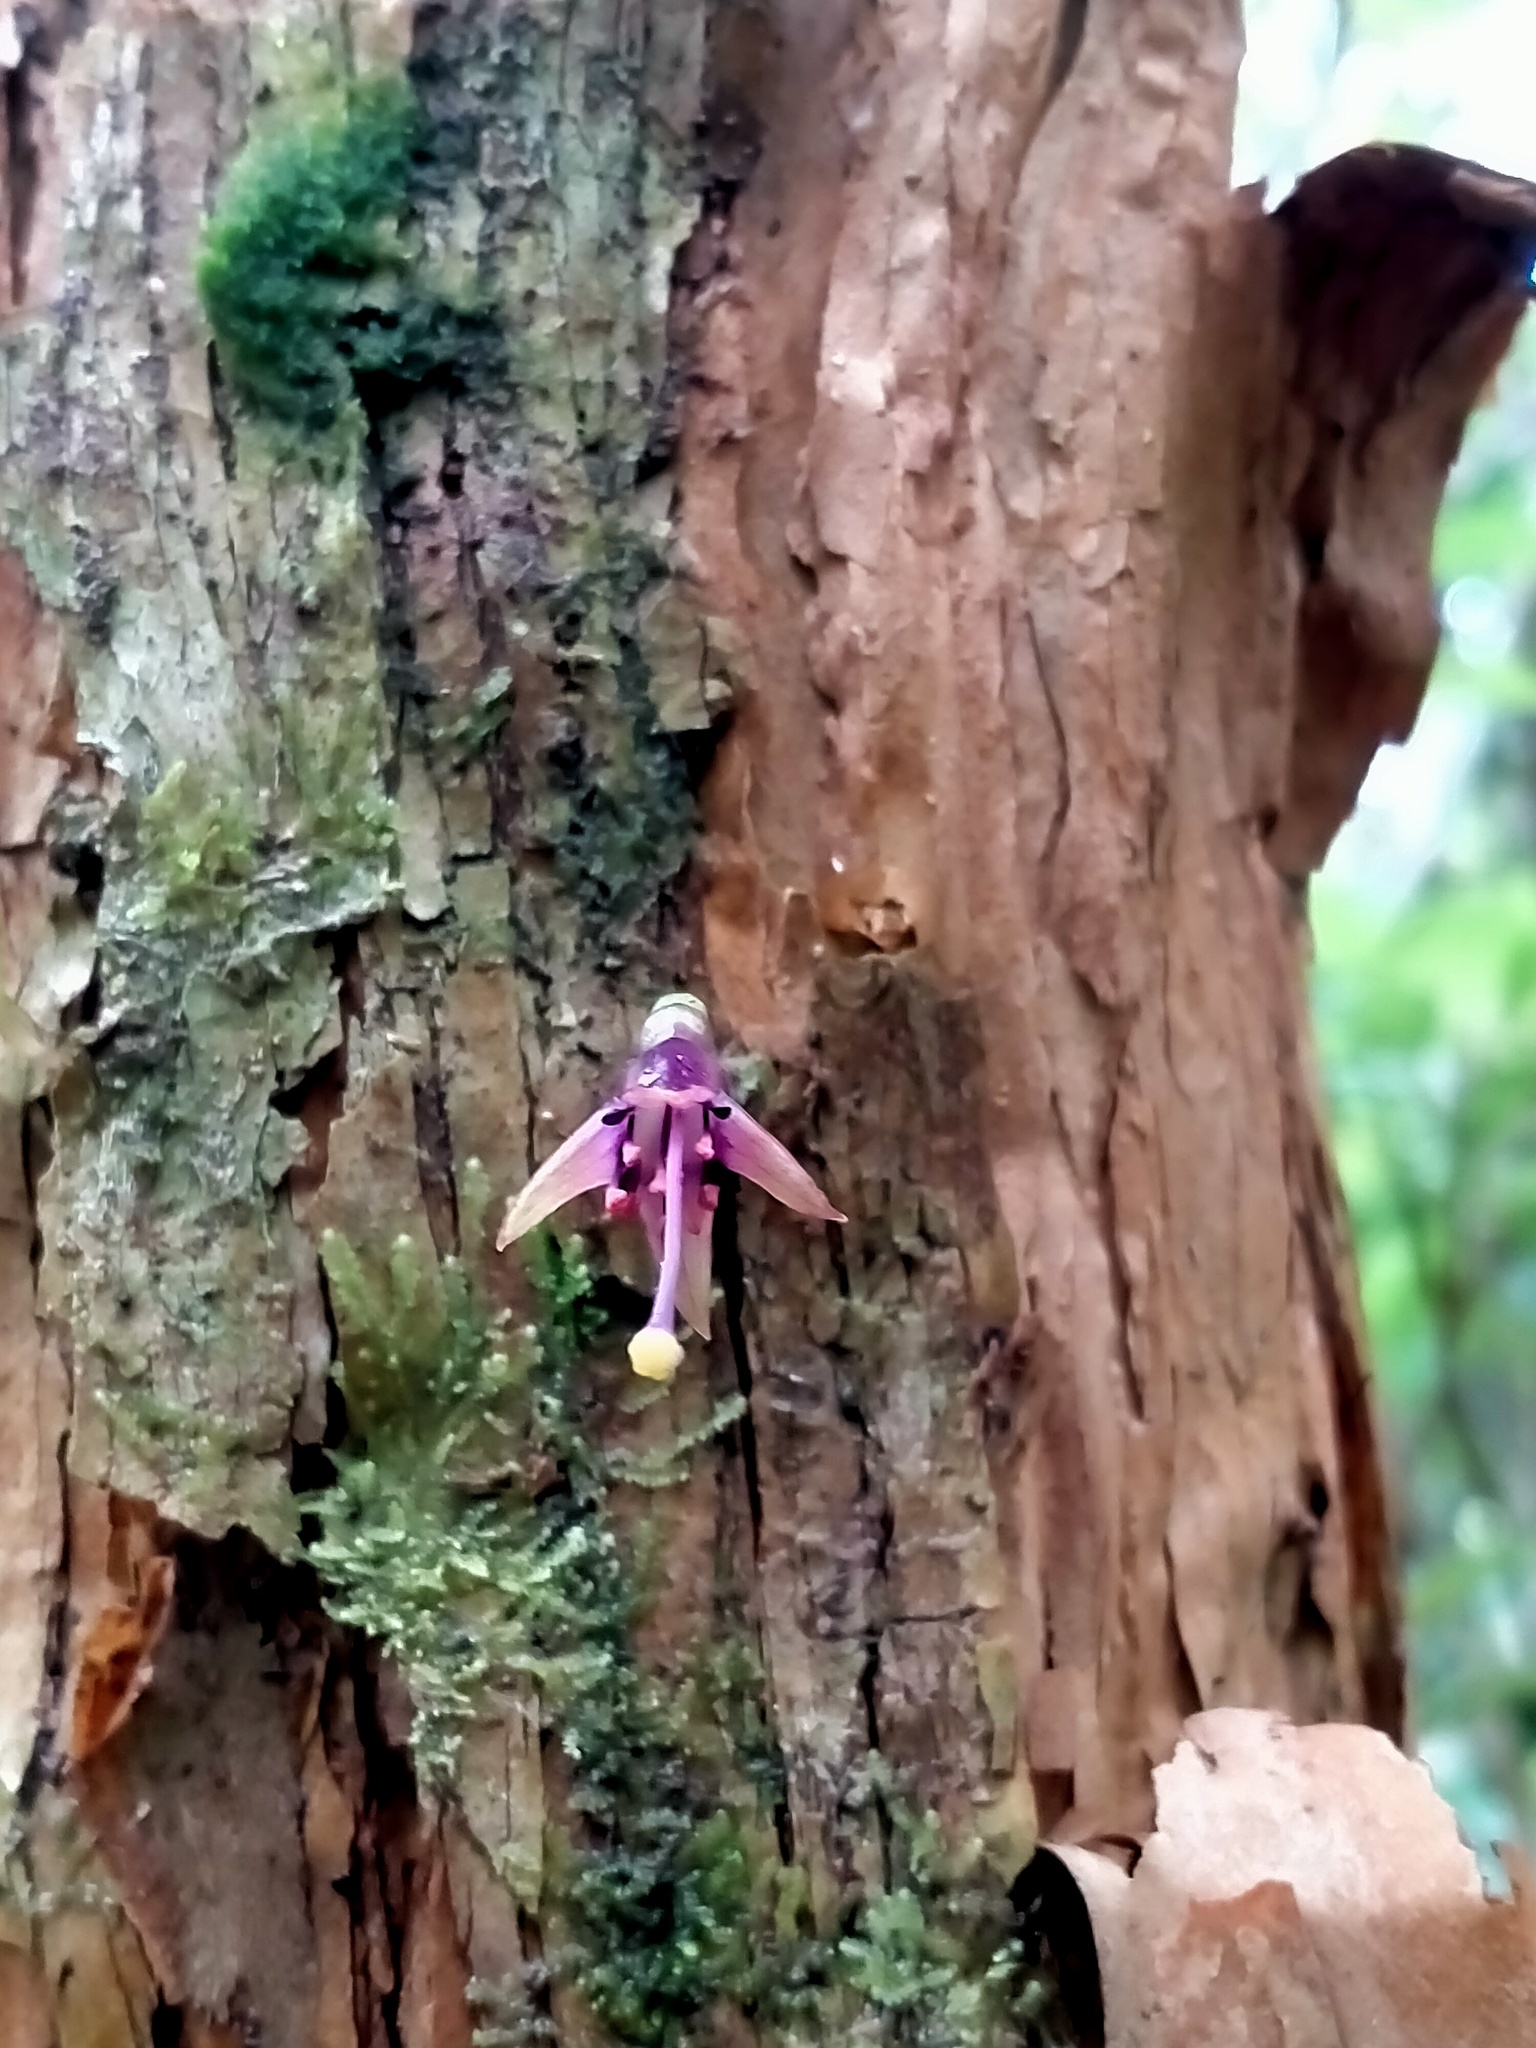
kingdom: Plantae
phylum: Tracheophyta
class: Magnoliopsida
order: Myrtales
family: Onagraceae
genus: Fuchsia
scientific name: Fuchsia excorticata
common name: Tree fuchsia
